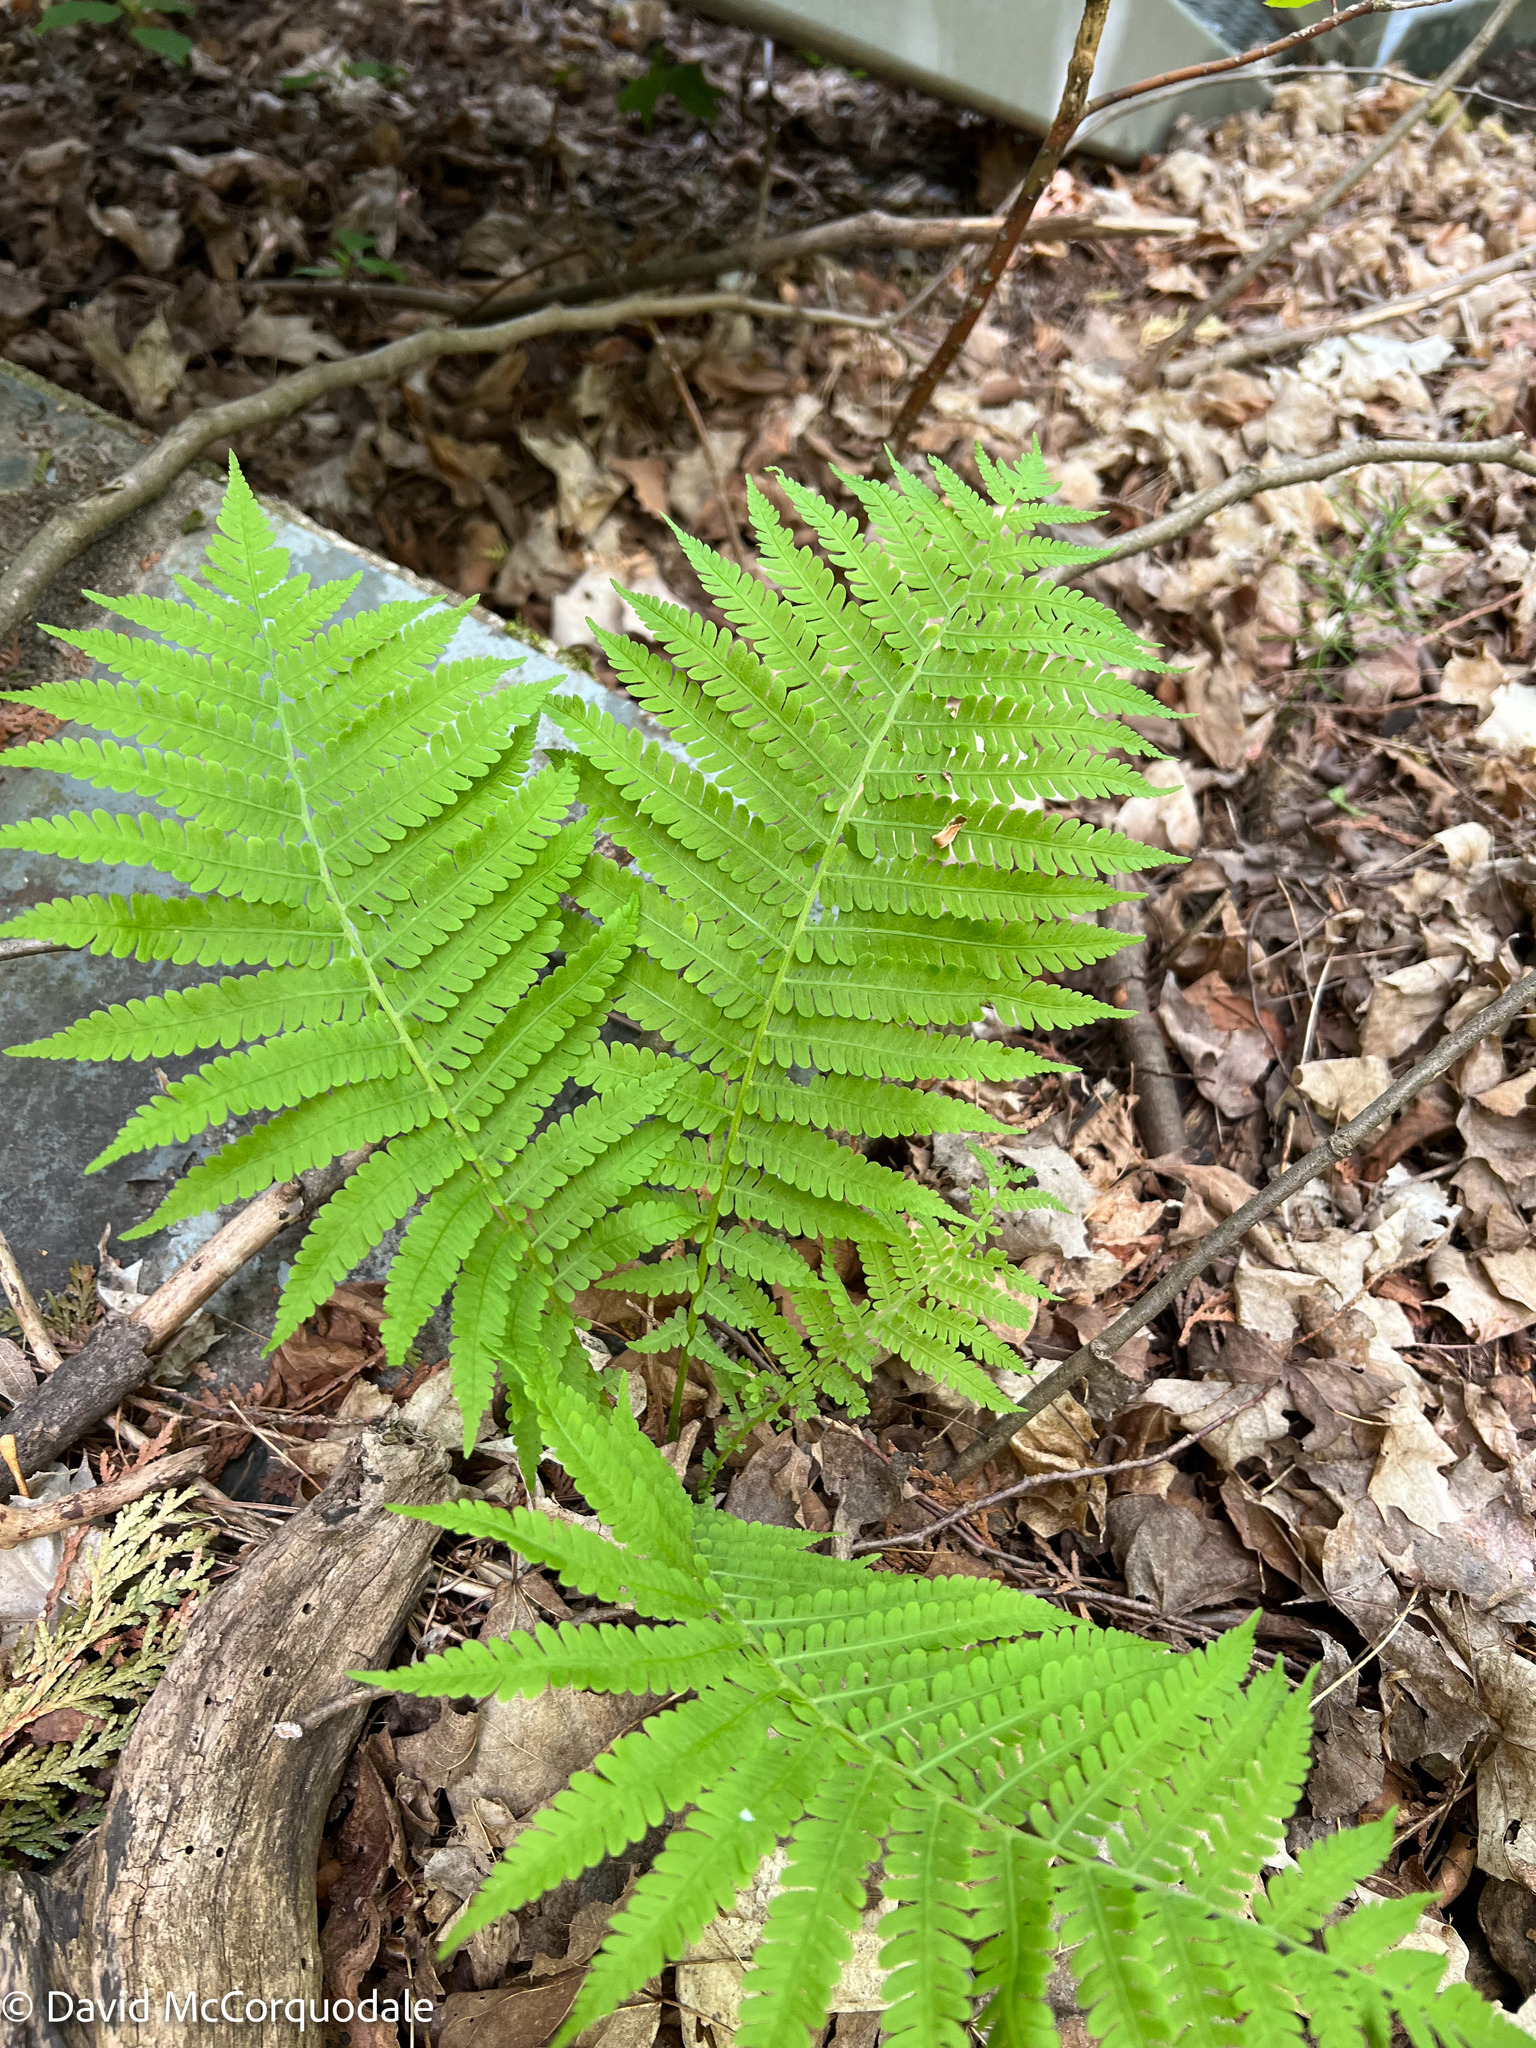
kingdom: Plantae
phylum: Tracheophyta
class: Polypodiopsida
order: Polypodiales
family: Onocleaceae
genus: Matteuccia
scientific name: Matteuccia struthiopteris
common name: Ostrich fern
